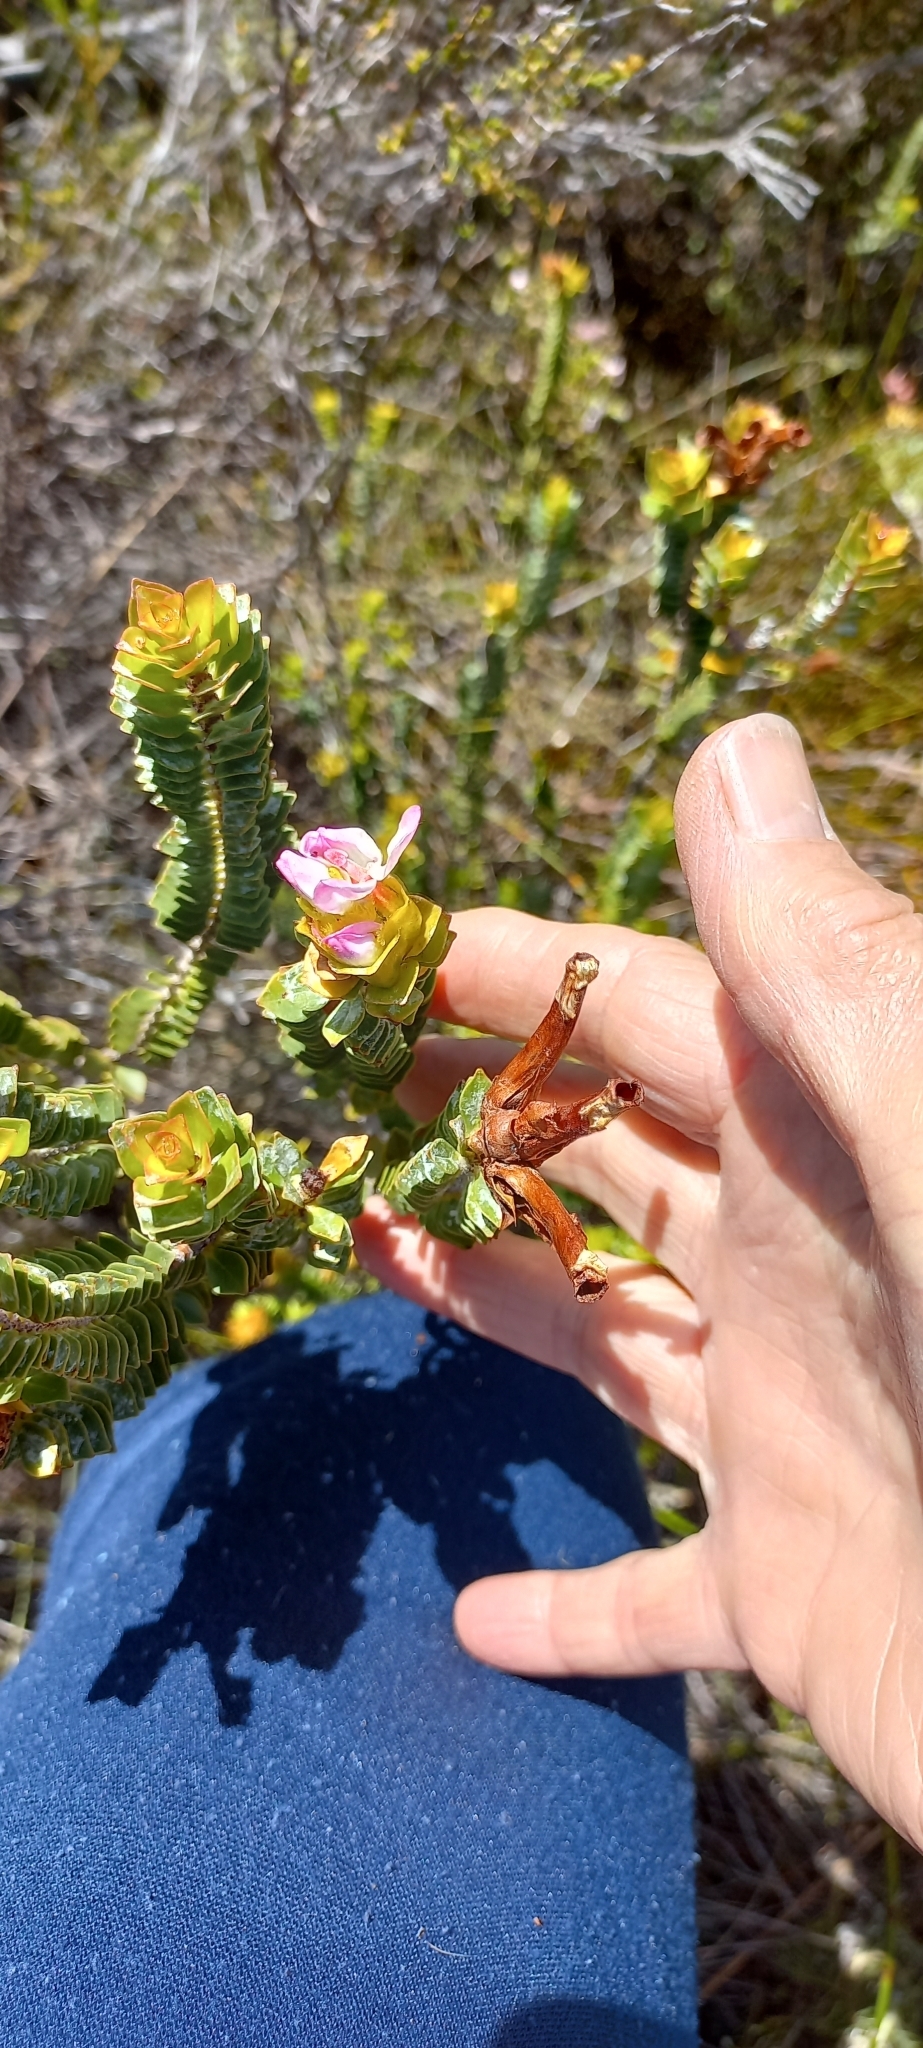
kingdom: Plantae
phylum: Tracheophyta
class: Magnoliopsida
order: Myrtales
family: Penaeaceae
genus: Saltera
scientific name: Saltera sarcocolla
